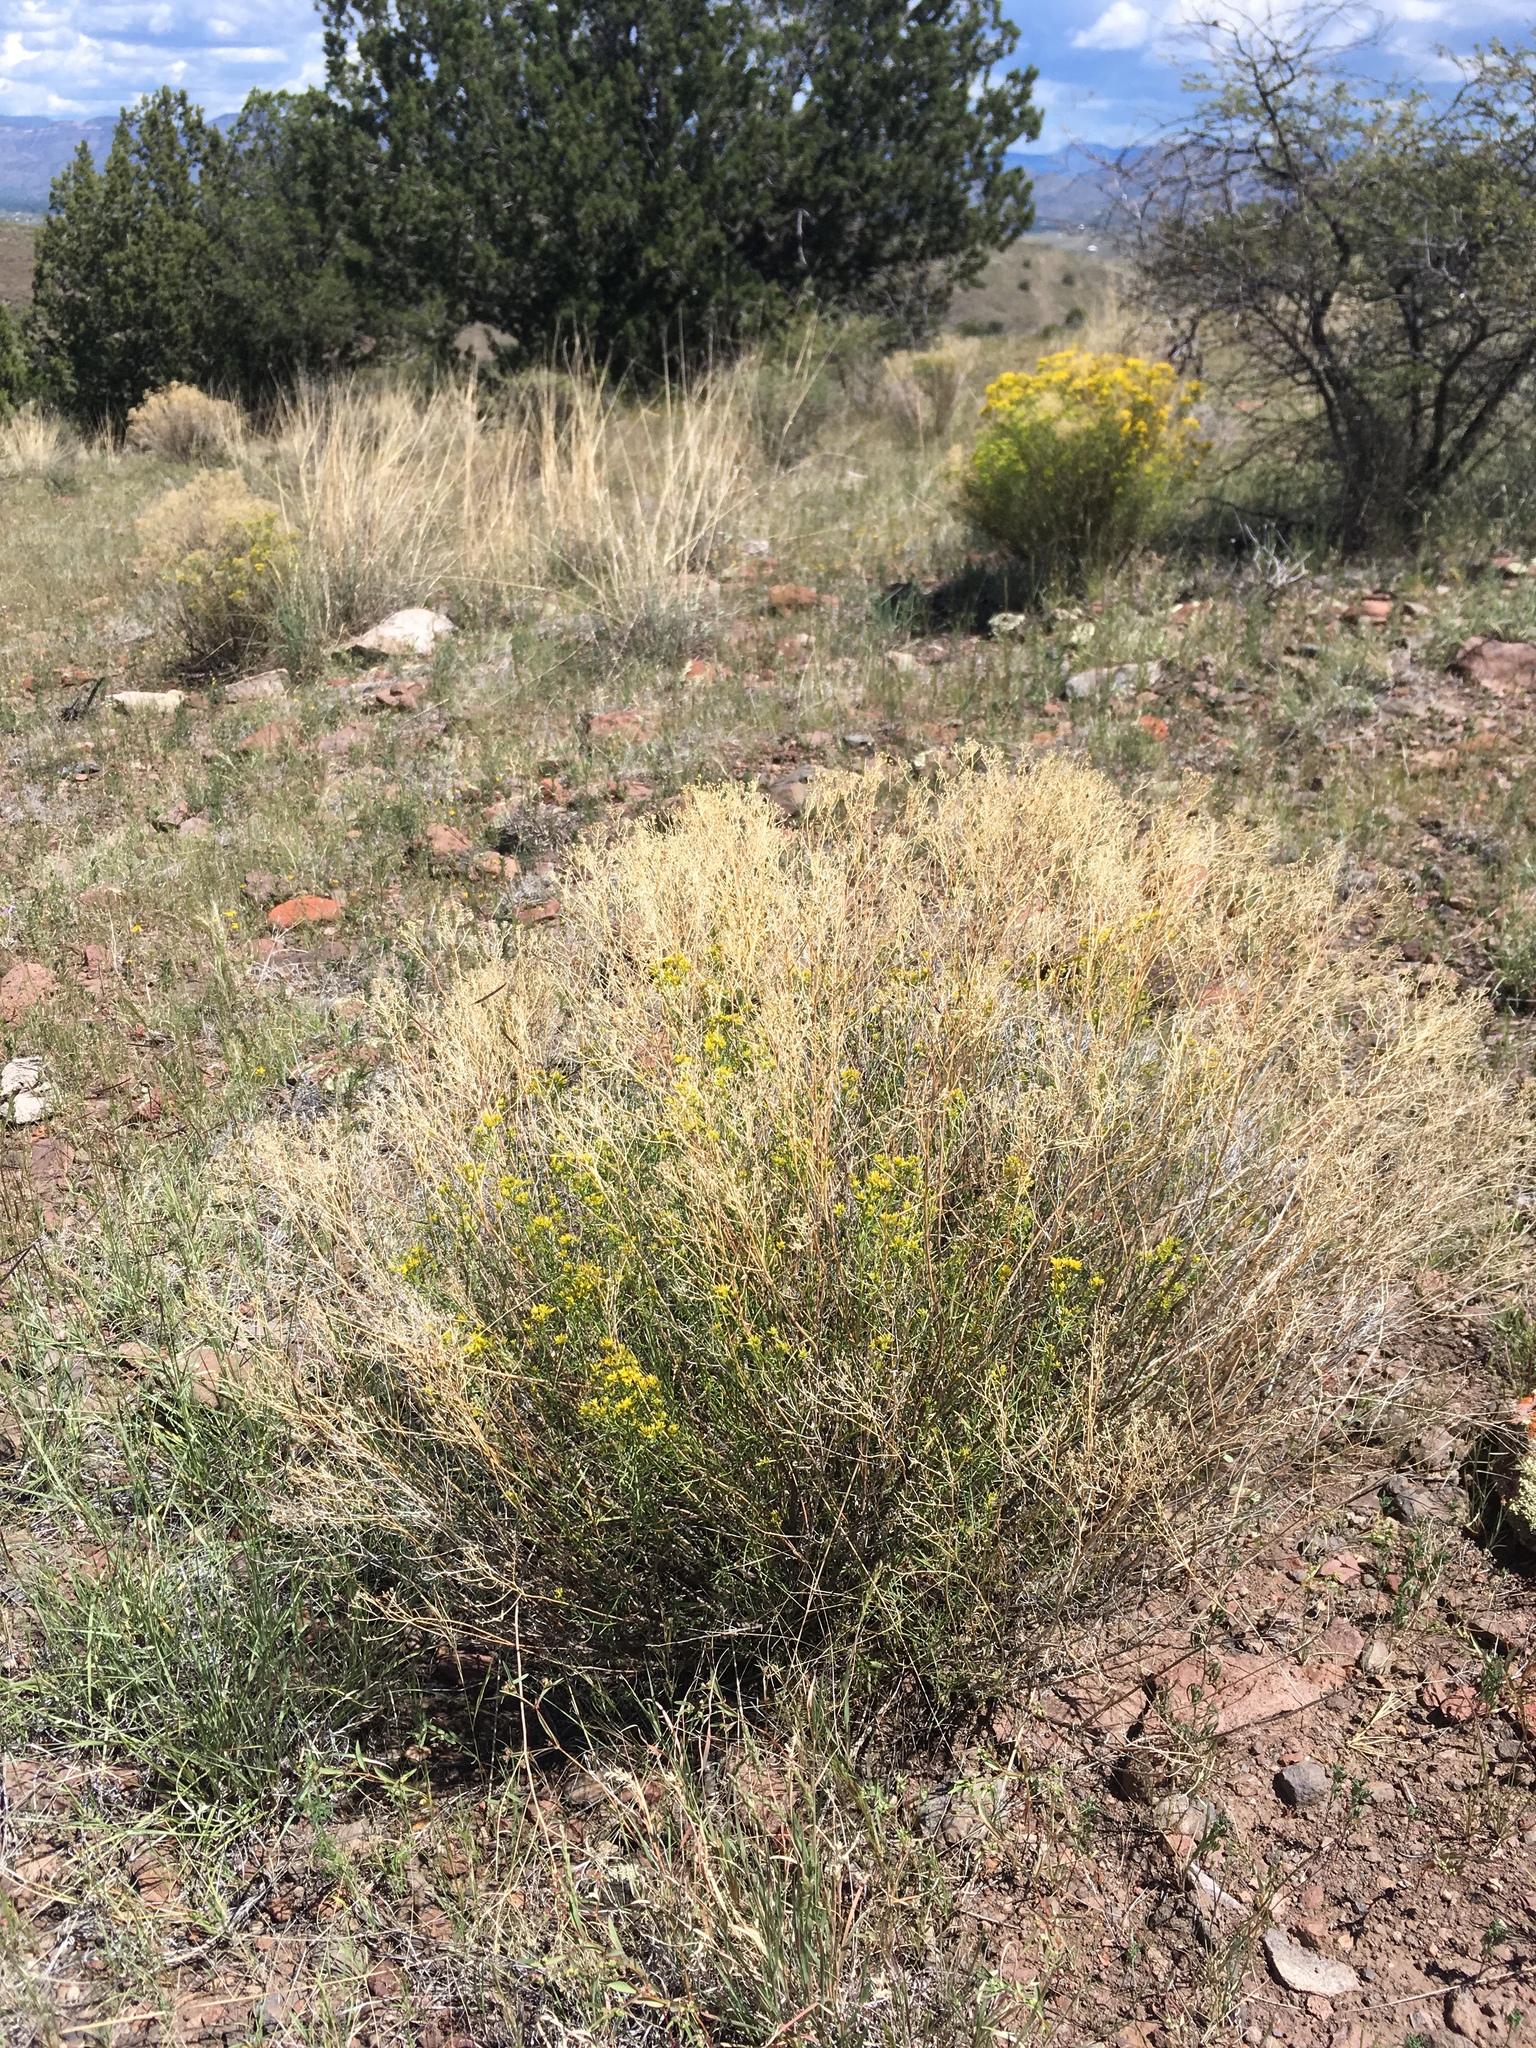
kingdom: Plantae
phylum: Tracheophyta
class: Magnoliopsida
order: Asterales
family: Asteraceae
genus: Gutierrezia
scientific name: Gutierrezia microcephala
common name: Thread snakeweed
